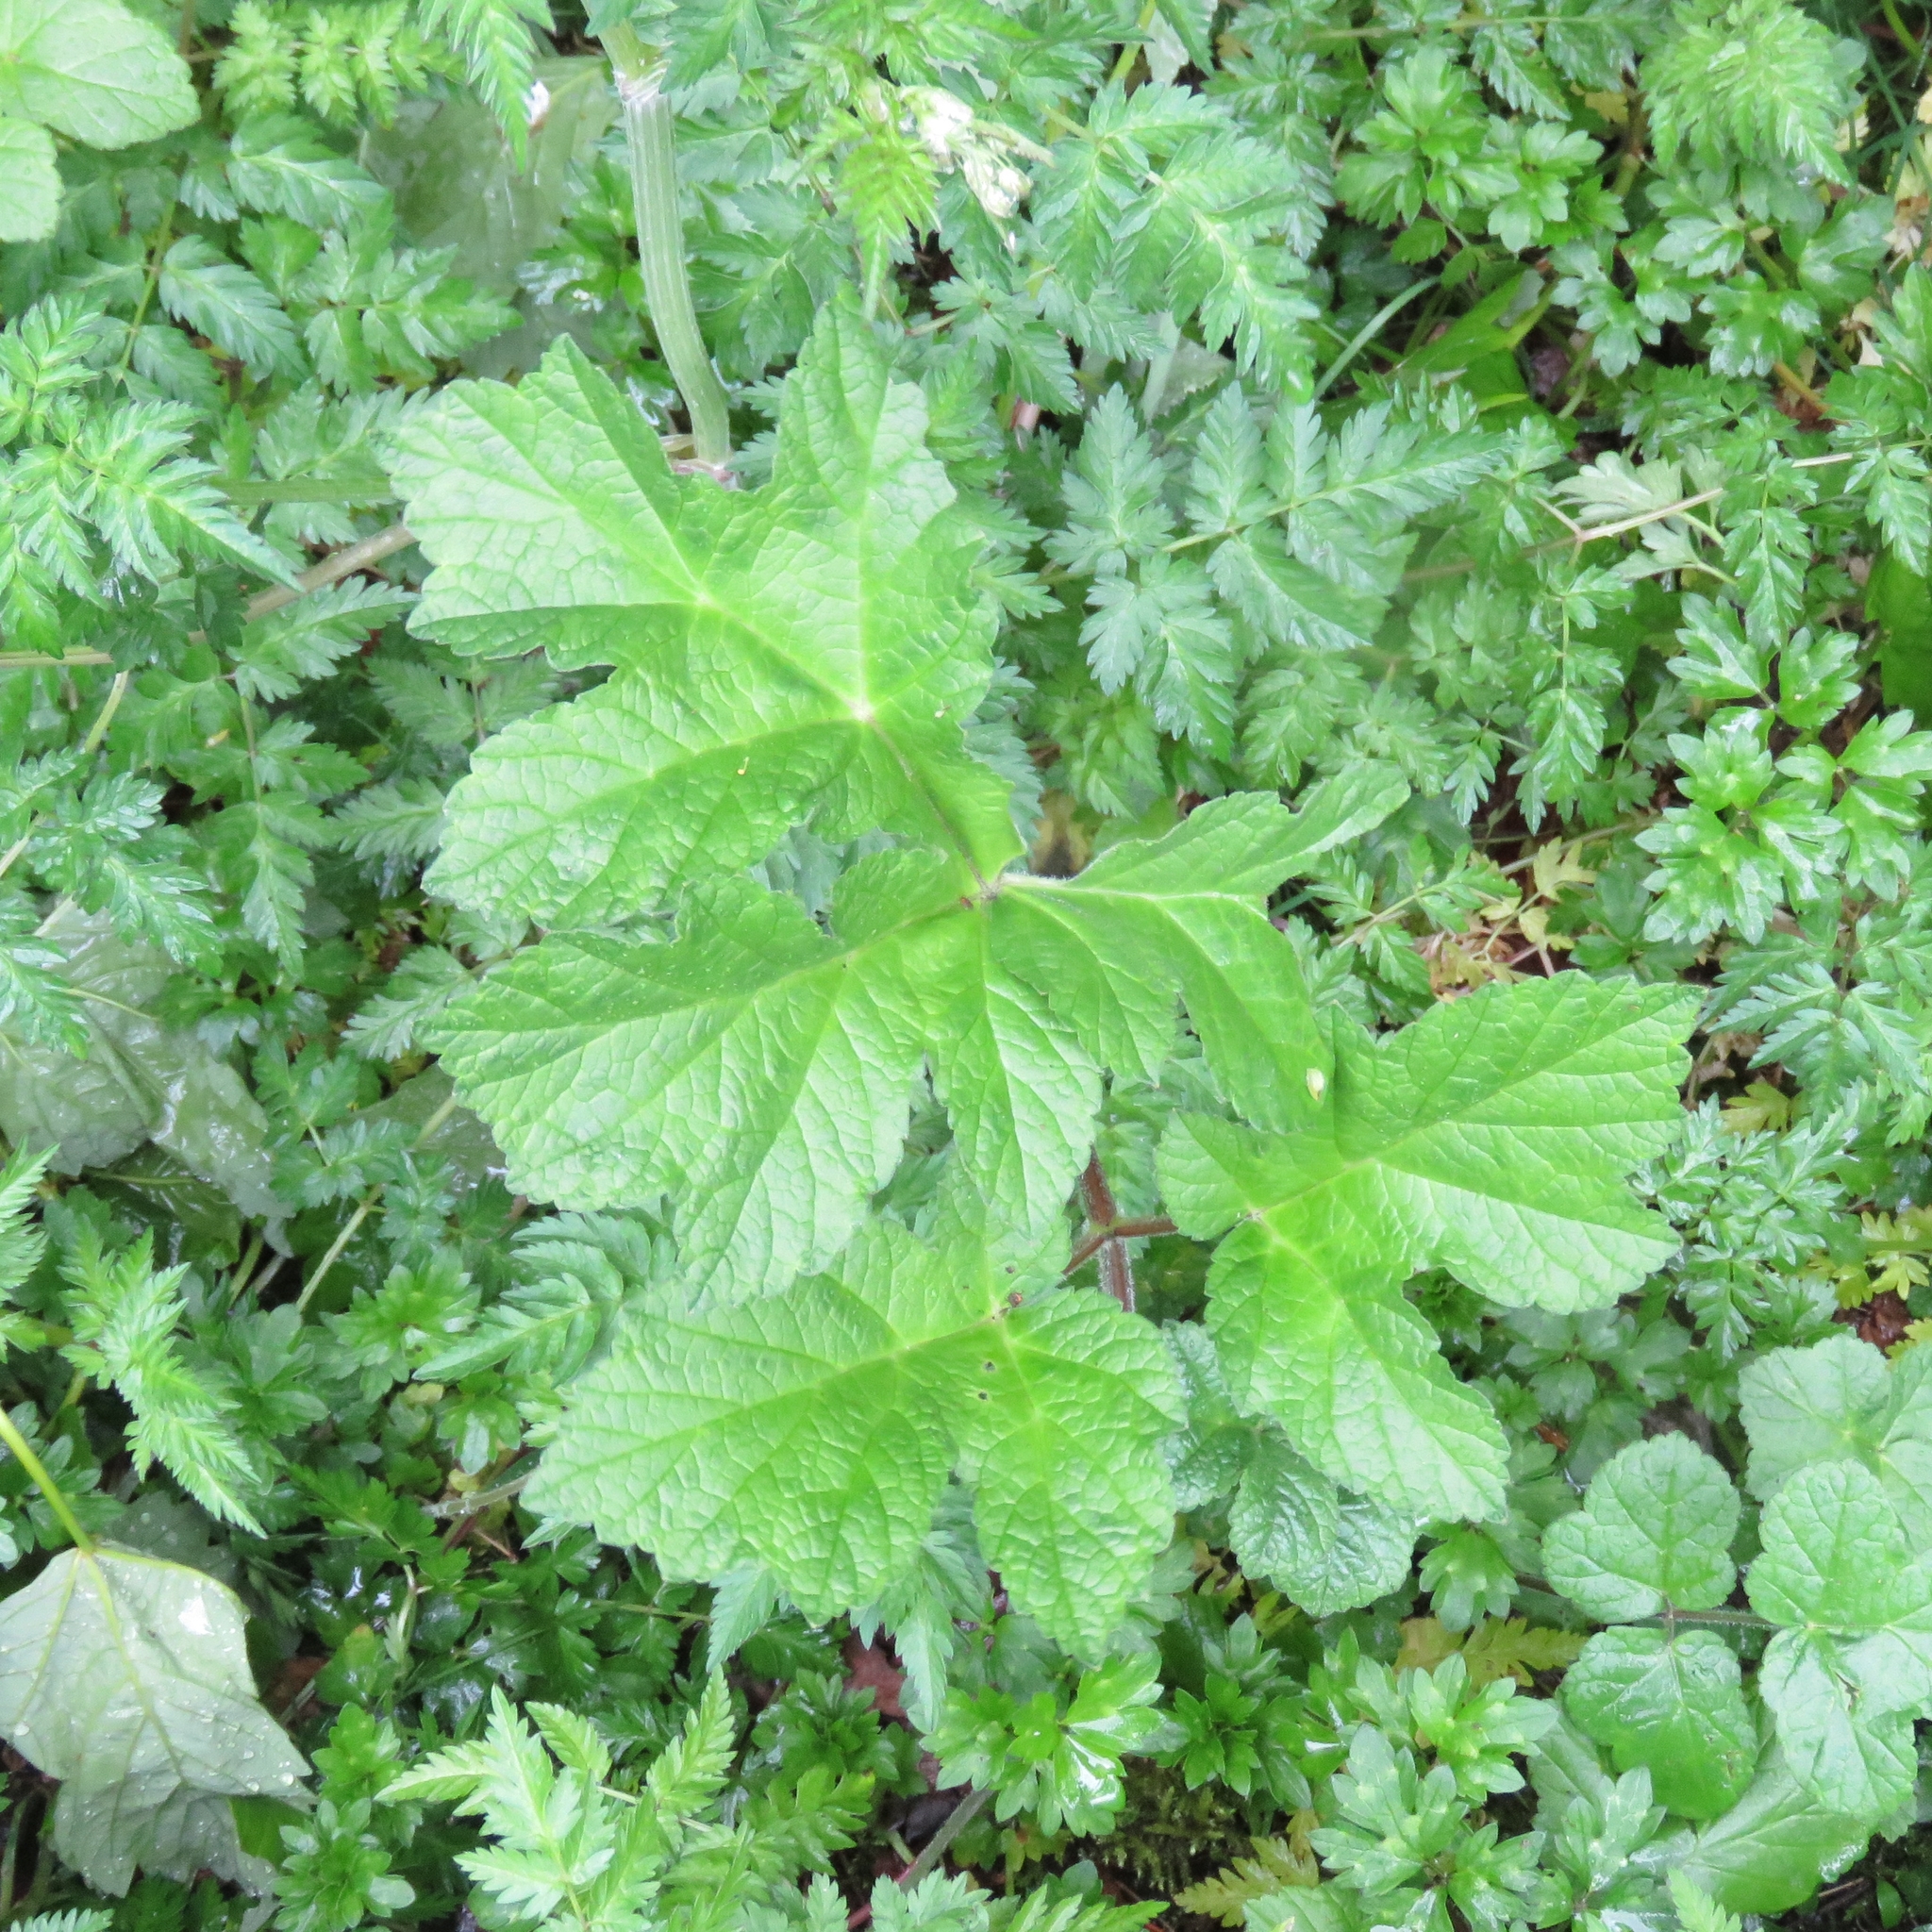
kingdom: Plantae
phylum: Tracheophyta
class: Magnoliopsida
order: Apiales
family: Apiaceae
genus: Heracleum
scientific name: Heracleum sphondylium
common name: Hogweed
